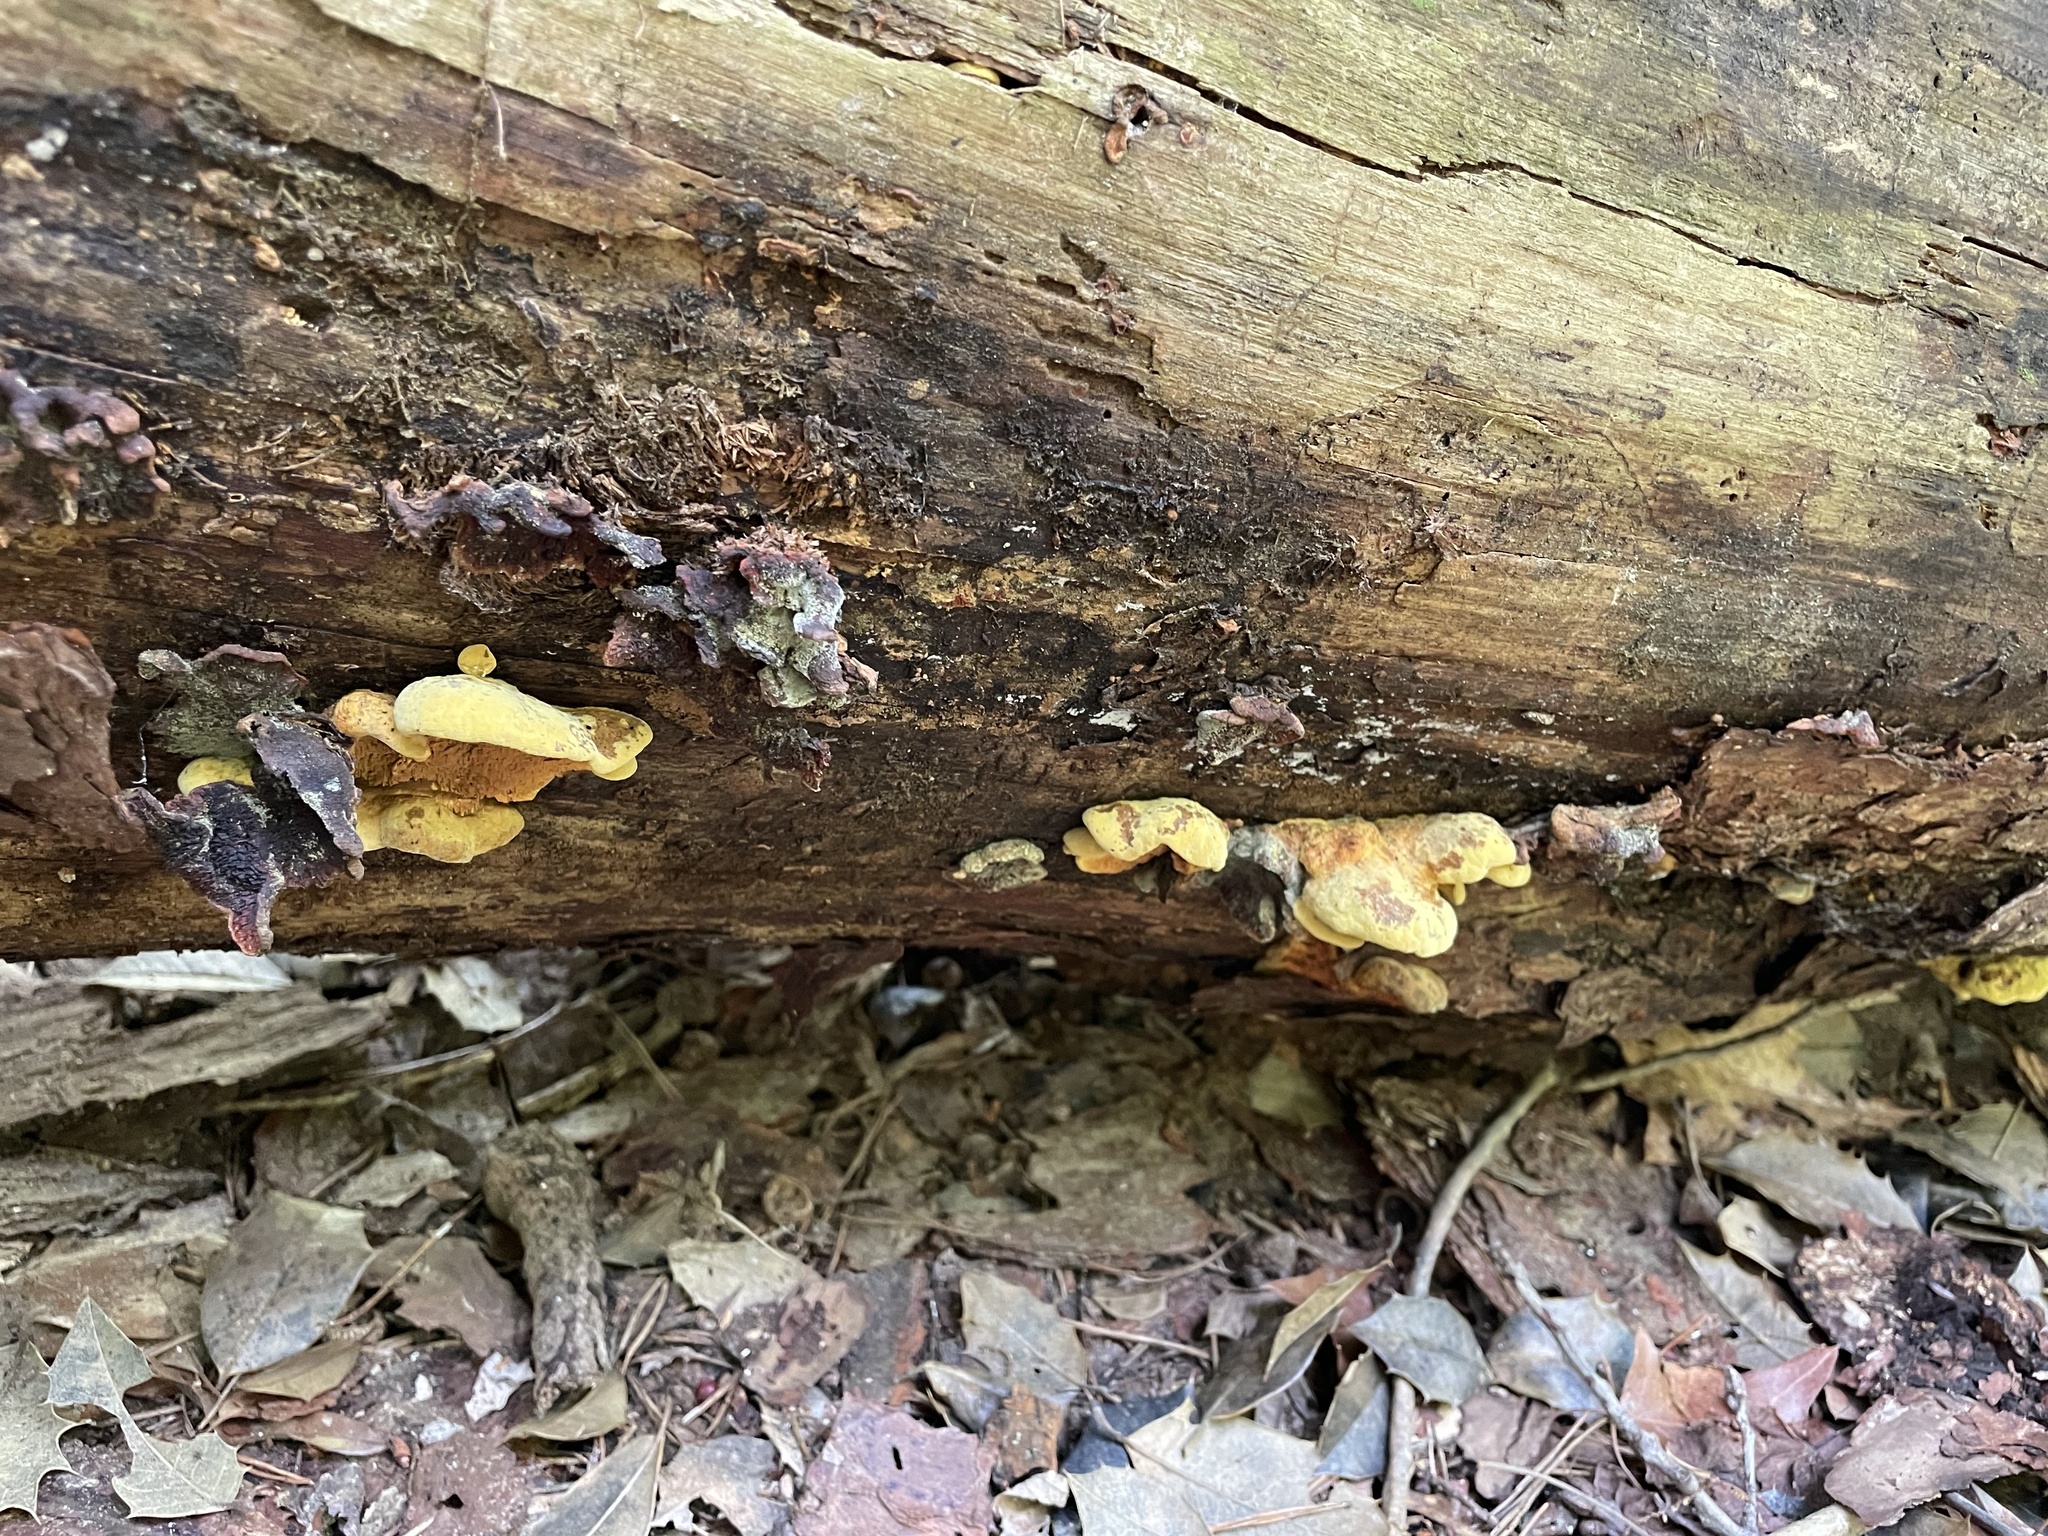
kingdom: Fungi
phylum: Basidiomycota
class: Agaricomycetes
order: Boletales
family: Paxillaceae
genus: Meiorganum
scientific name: Meiorganum curtisii
